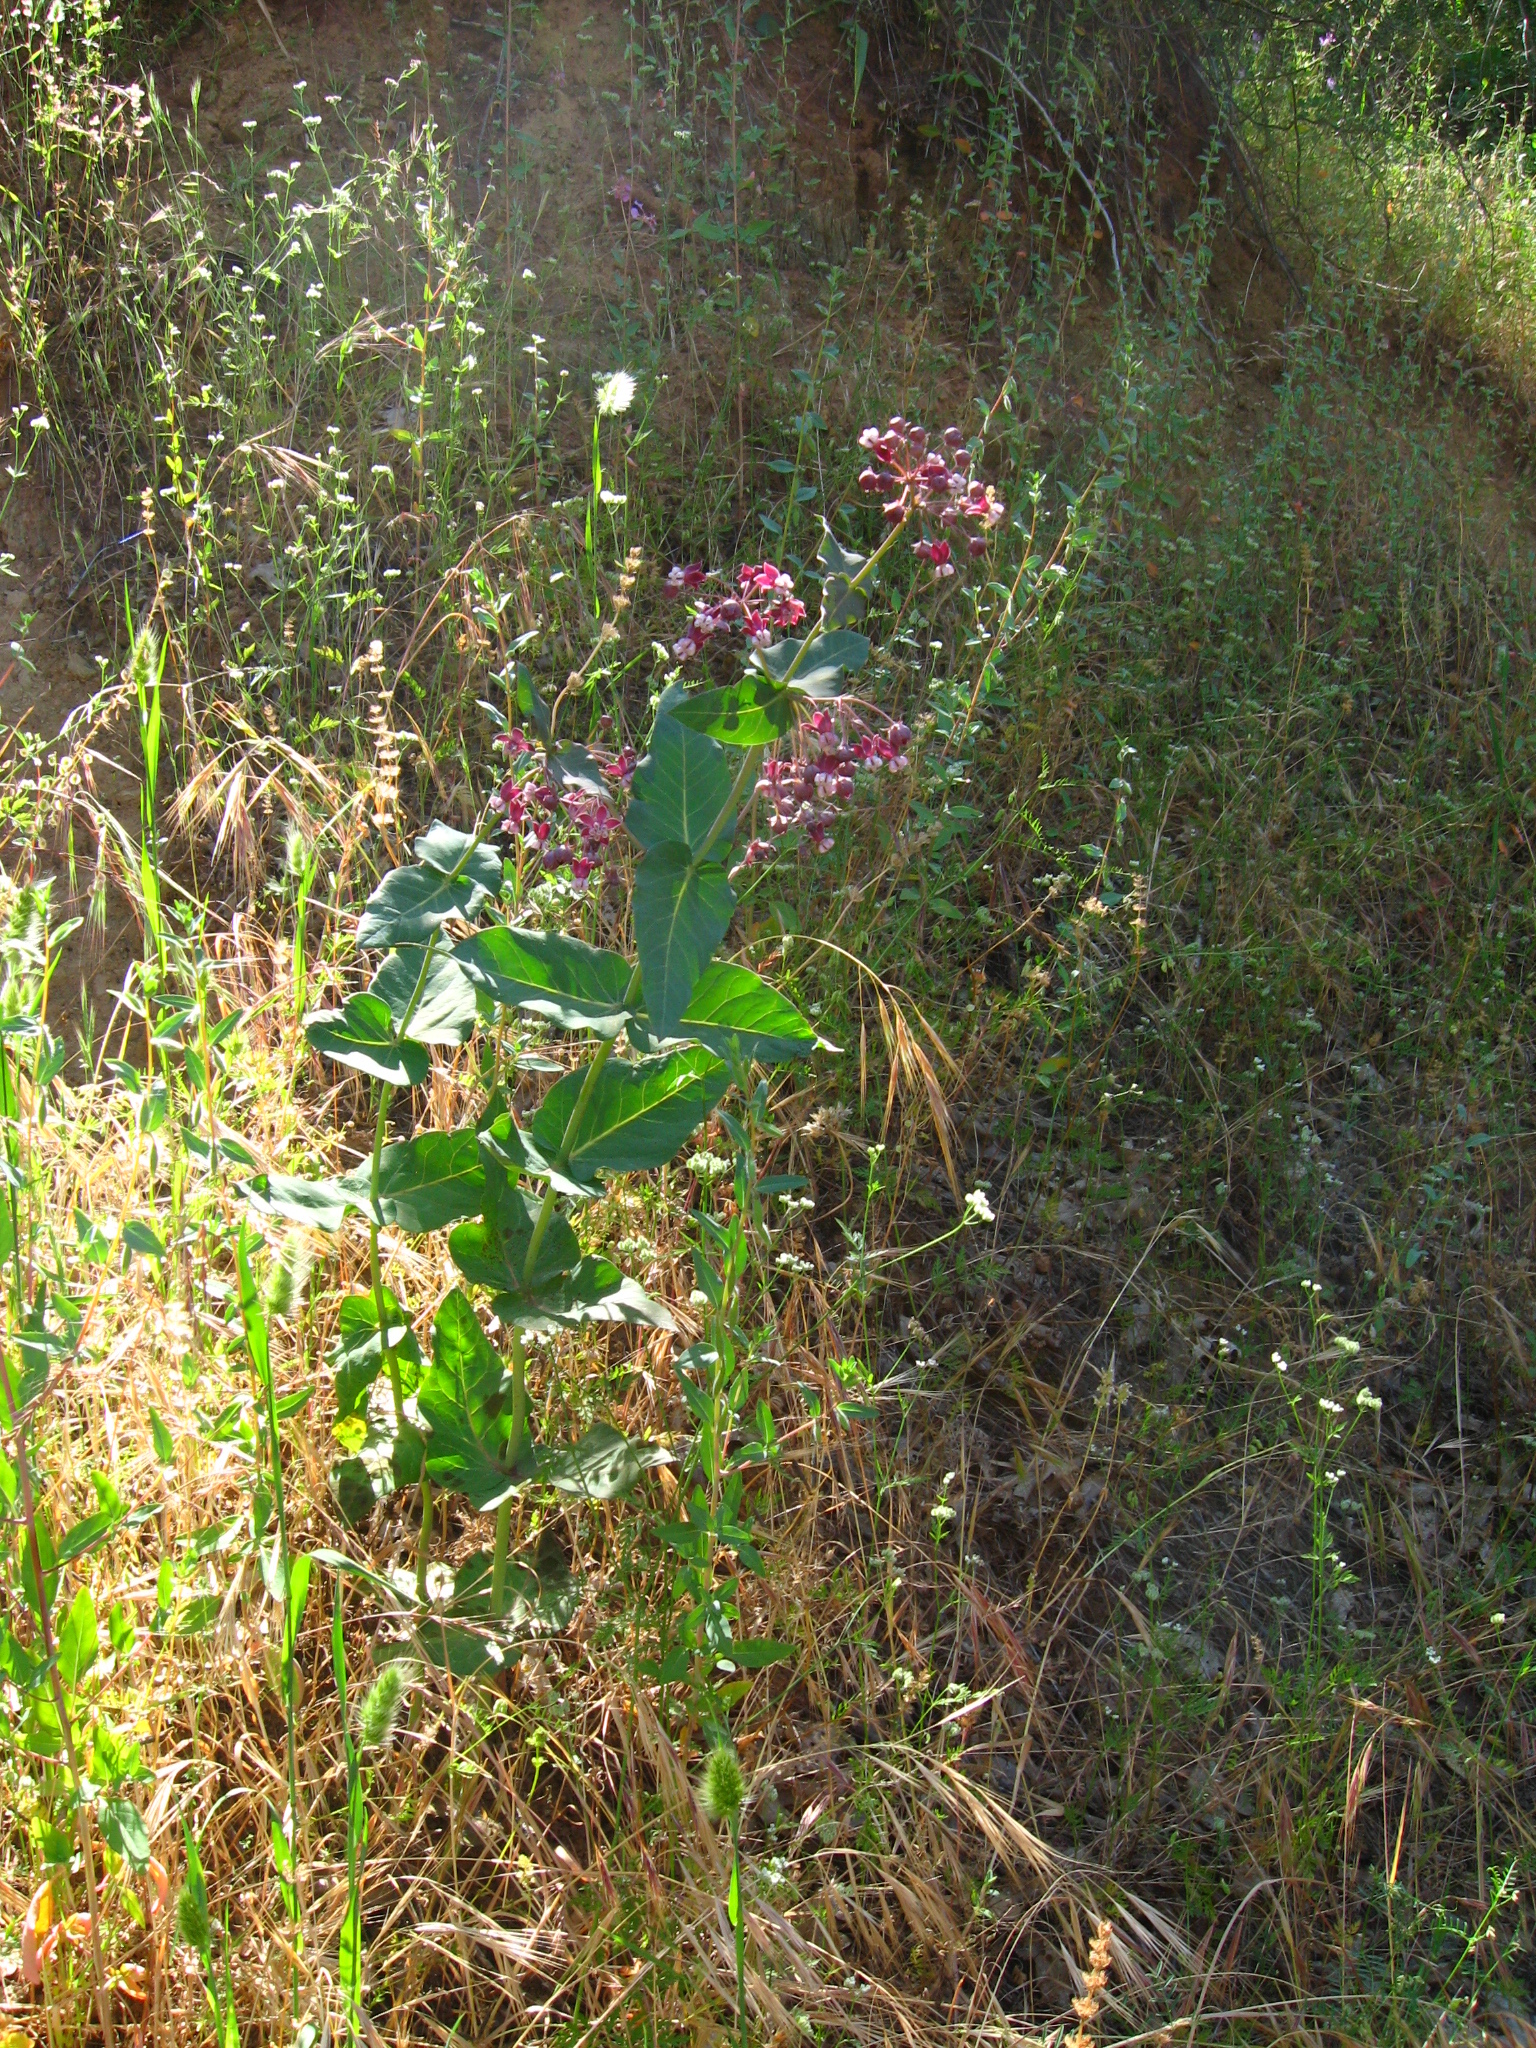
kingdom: Plantae
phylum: Tracheophyta
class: Magnoliopsida
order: Gentianales
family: Apocynaceae
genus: Asclepias
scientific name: Asclepias cordifolia
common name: Purple milkweed
